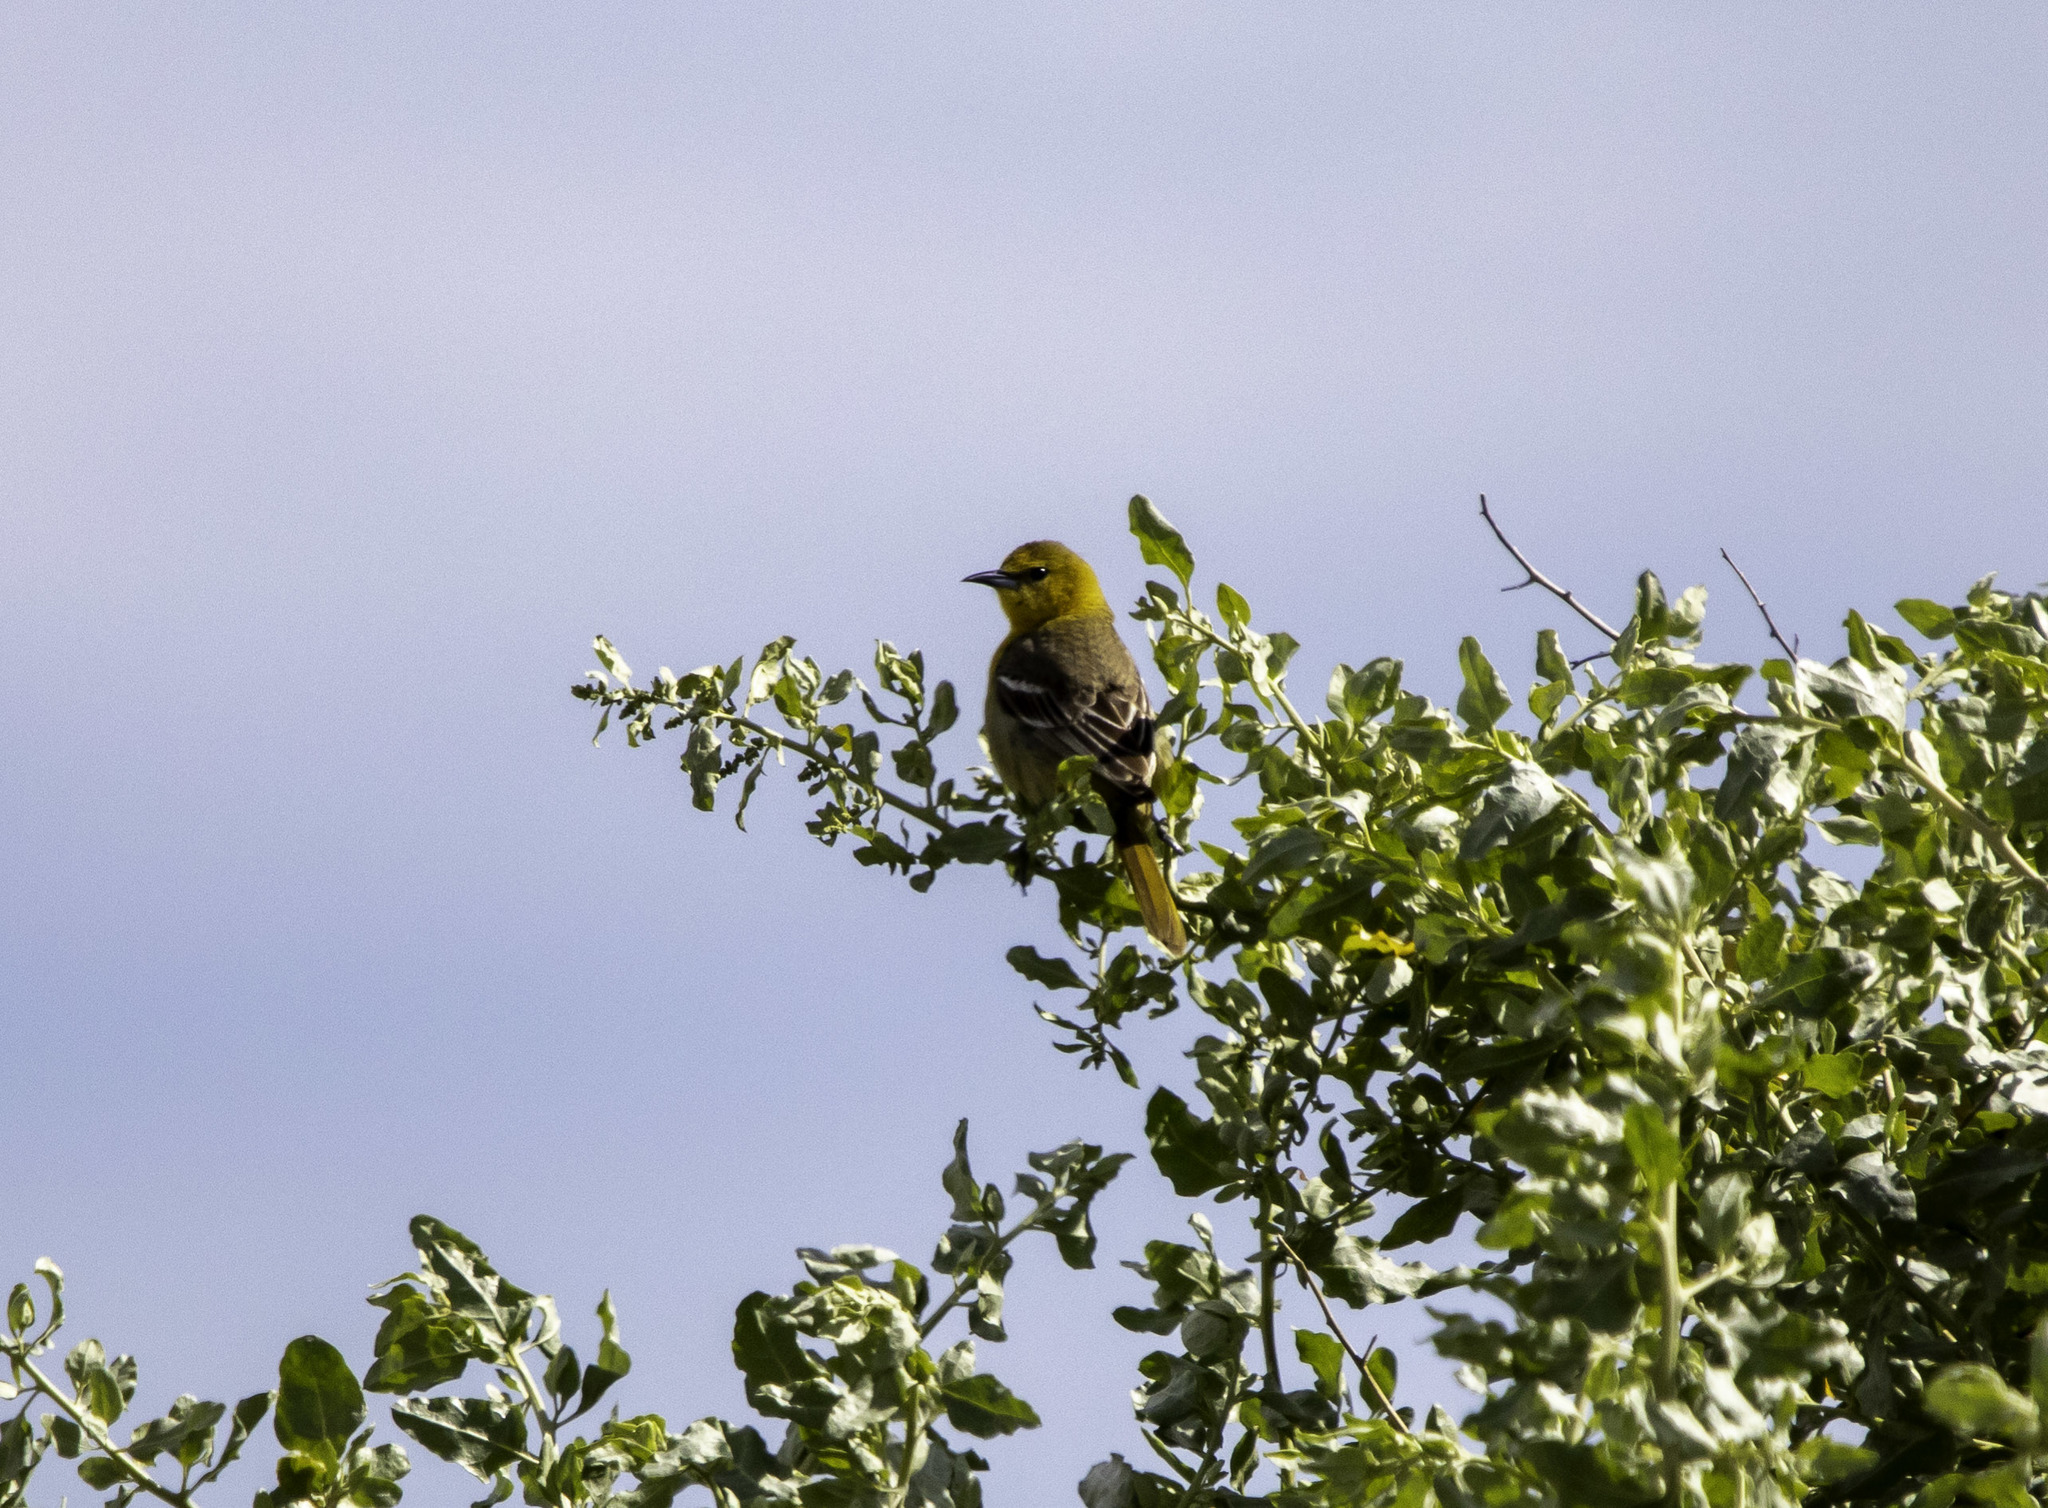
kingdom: Animalia
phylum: Chordata
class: Aves
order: Passeriformes
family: Icteridae
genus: Icterus
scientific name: Icterus cucullatus
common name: Hooded oriole
